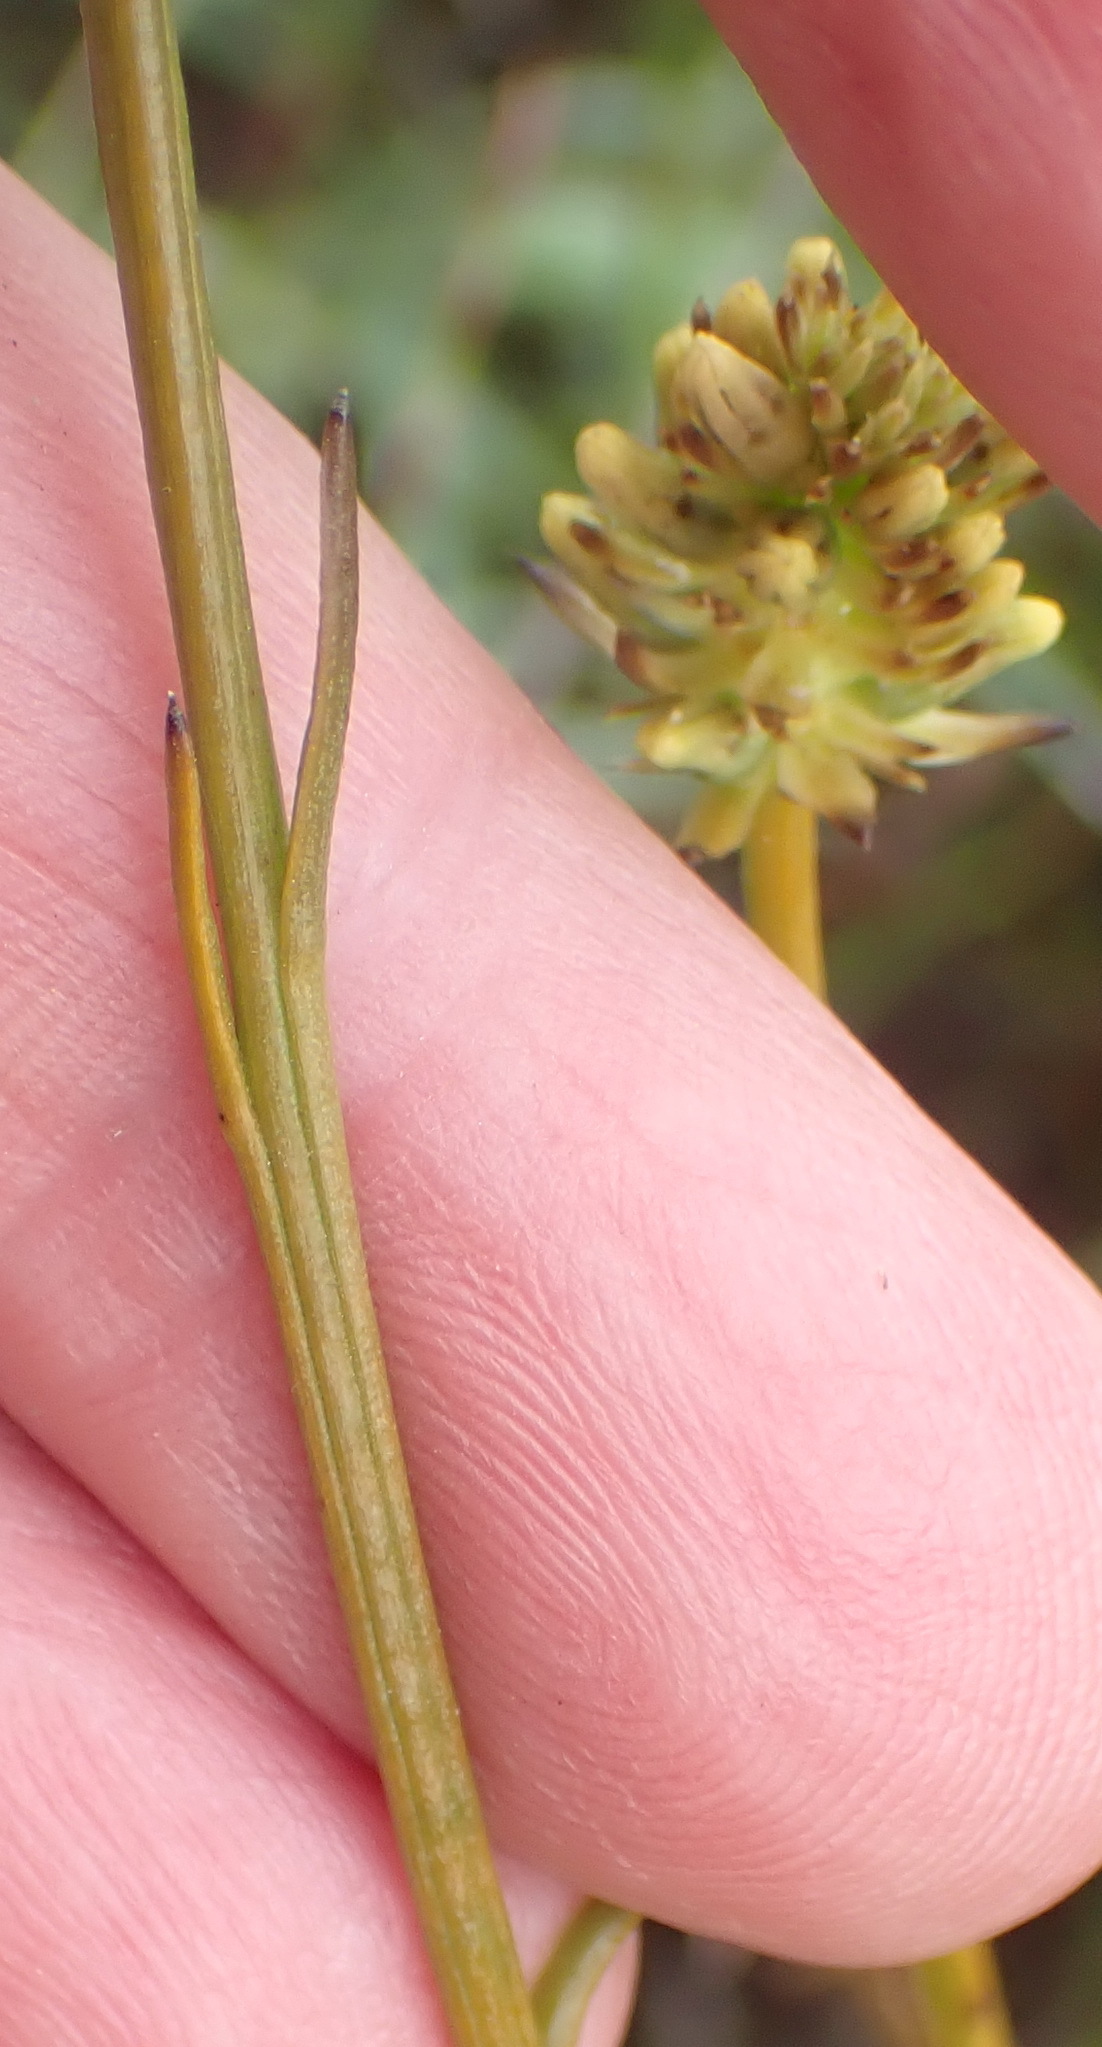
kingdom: Plantae
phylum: Tracheophyta
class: Magnoliopsida
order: Santalales
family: Thesiaceae
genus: Thesium
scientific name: Thesium spicatum
